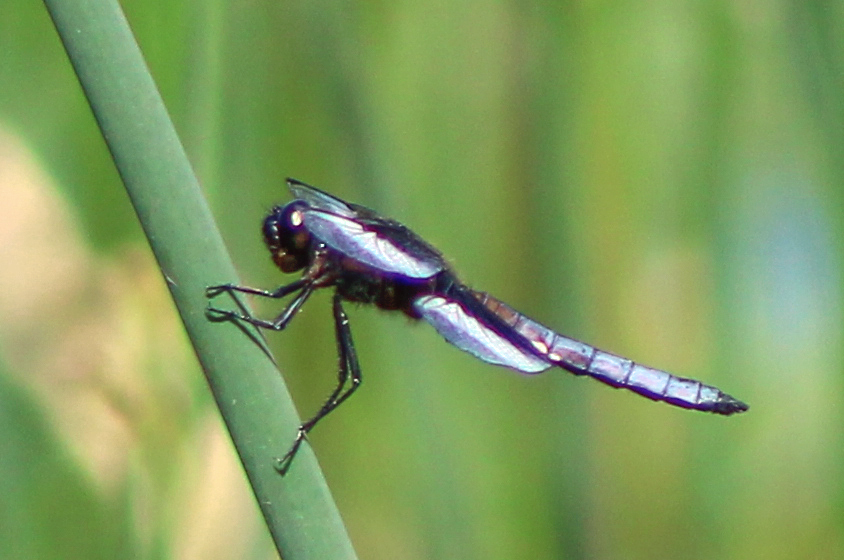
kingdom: Animalia
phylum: Arthropoda
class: Insecta
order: Odonata
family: Libellulidae
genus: Libellula
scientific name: Libellula luctuosa
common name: Widow skimmer
